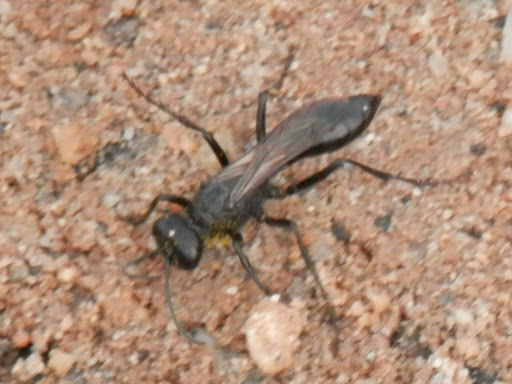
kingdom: Animalia
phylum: Arthropoda
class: Insecta
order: Hymenoptera
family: Sphecidae
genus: Podalonia
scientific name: Podalonia
